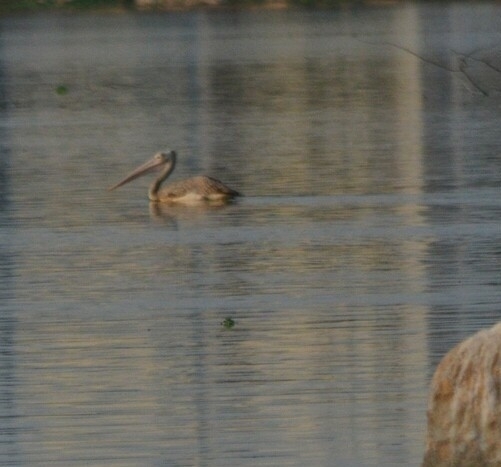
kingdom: Animalia
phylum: Chordata
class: Aves
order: Pelecaniformes
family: Pelecanidae
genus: Pelecanus
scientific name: Pelecanus philippensis
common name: Spot-billed pelican
